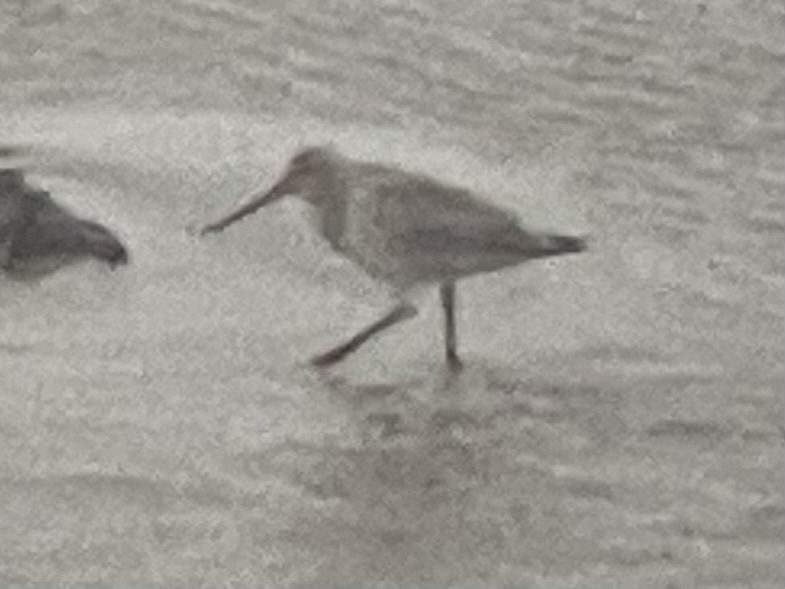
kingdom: Animalia
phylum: Chordata
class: Aves
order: Charadriiformes
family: Scolopacidae
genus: Limosa
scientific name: Limosa lapponica
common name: Bar-tailed godwit
